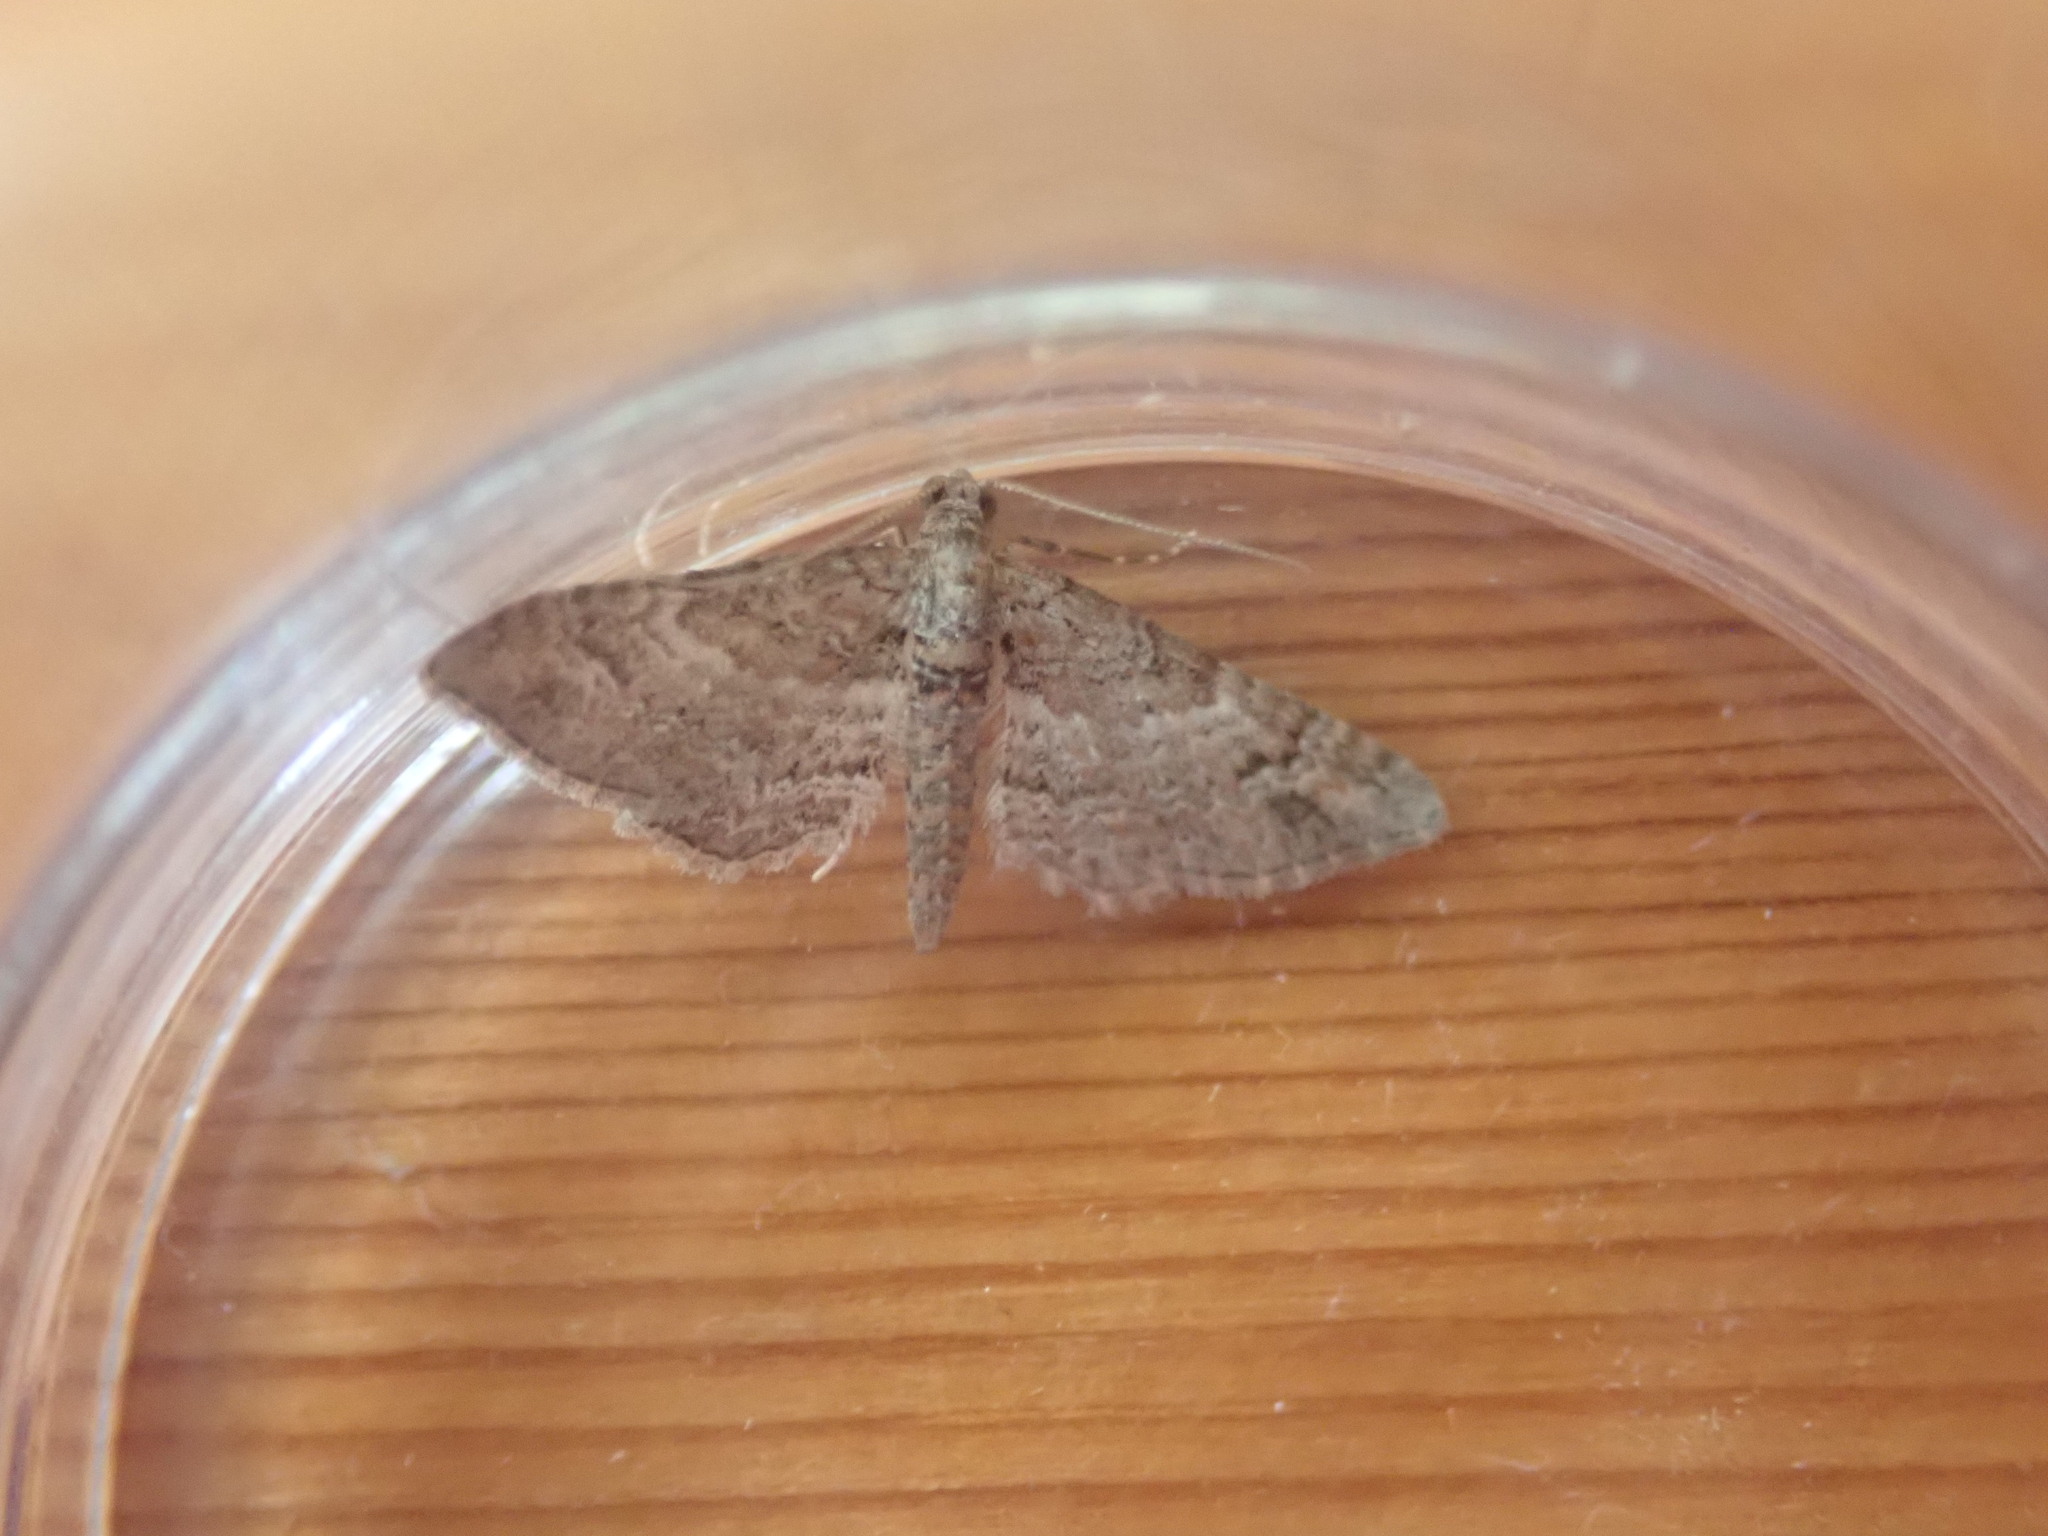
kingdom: Animalia
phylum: Arthropoda
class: Insecta
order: Lepidoptera
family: Geometridae
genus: Gymnoscelis
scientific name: Gymnoscelis rufifasciata
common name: Double-striped pug
